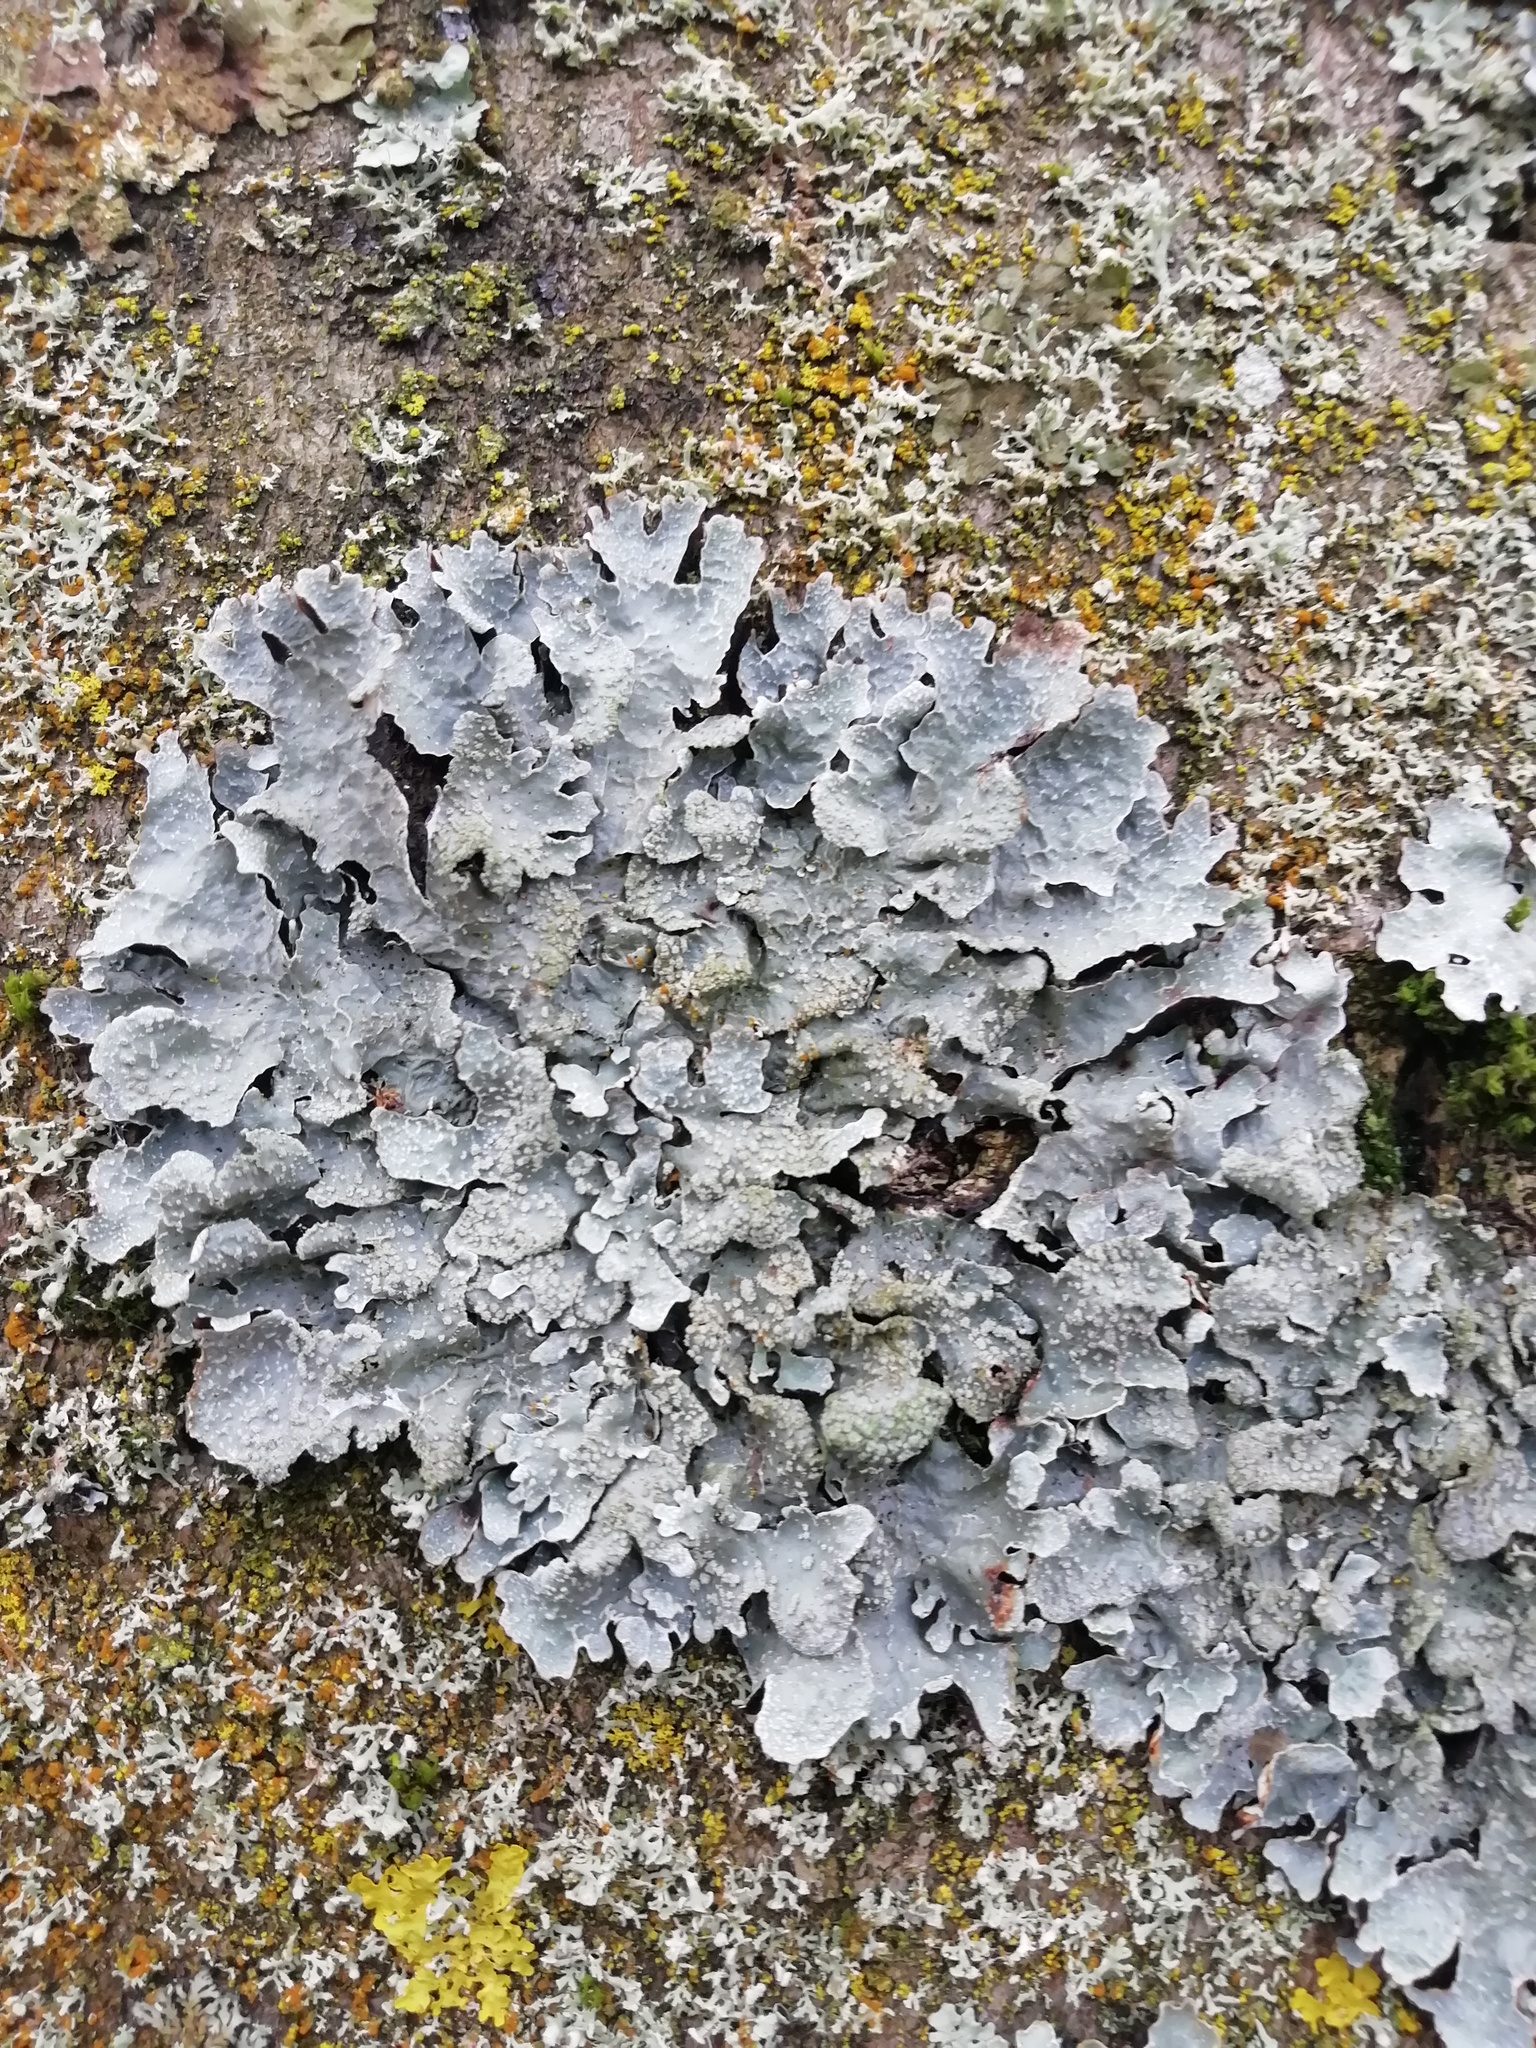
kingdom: Fungi
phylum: Ascomycota
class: Lecanoromycetes
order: Lecanorales
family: Parmeliaceae
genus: Parmelia
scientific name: Parmelia sulcata
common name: Netted shield lichen
